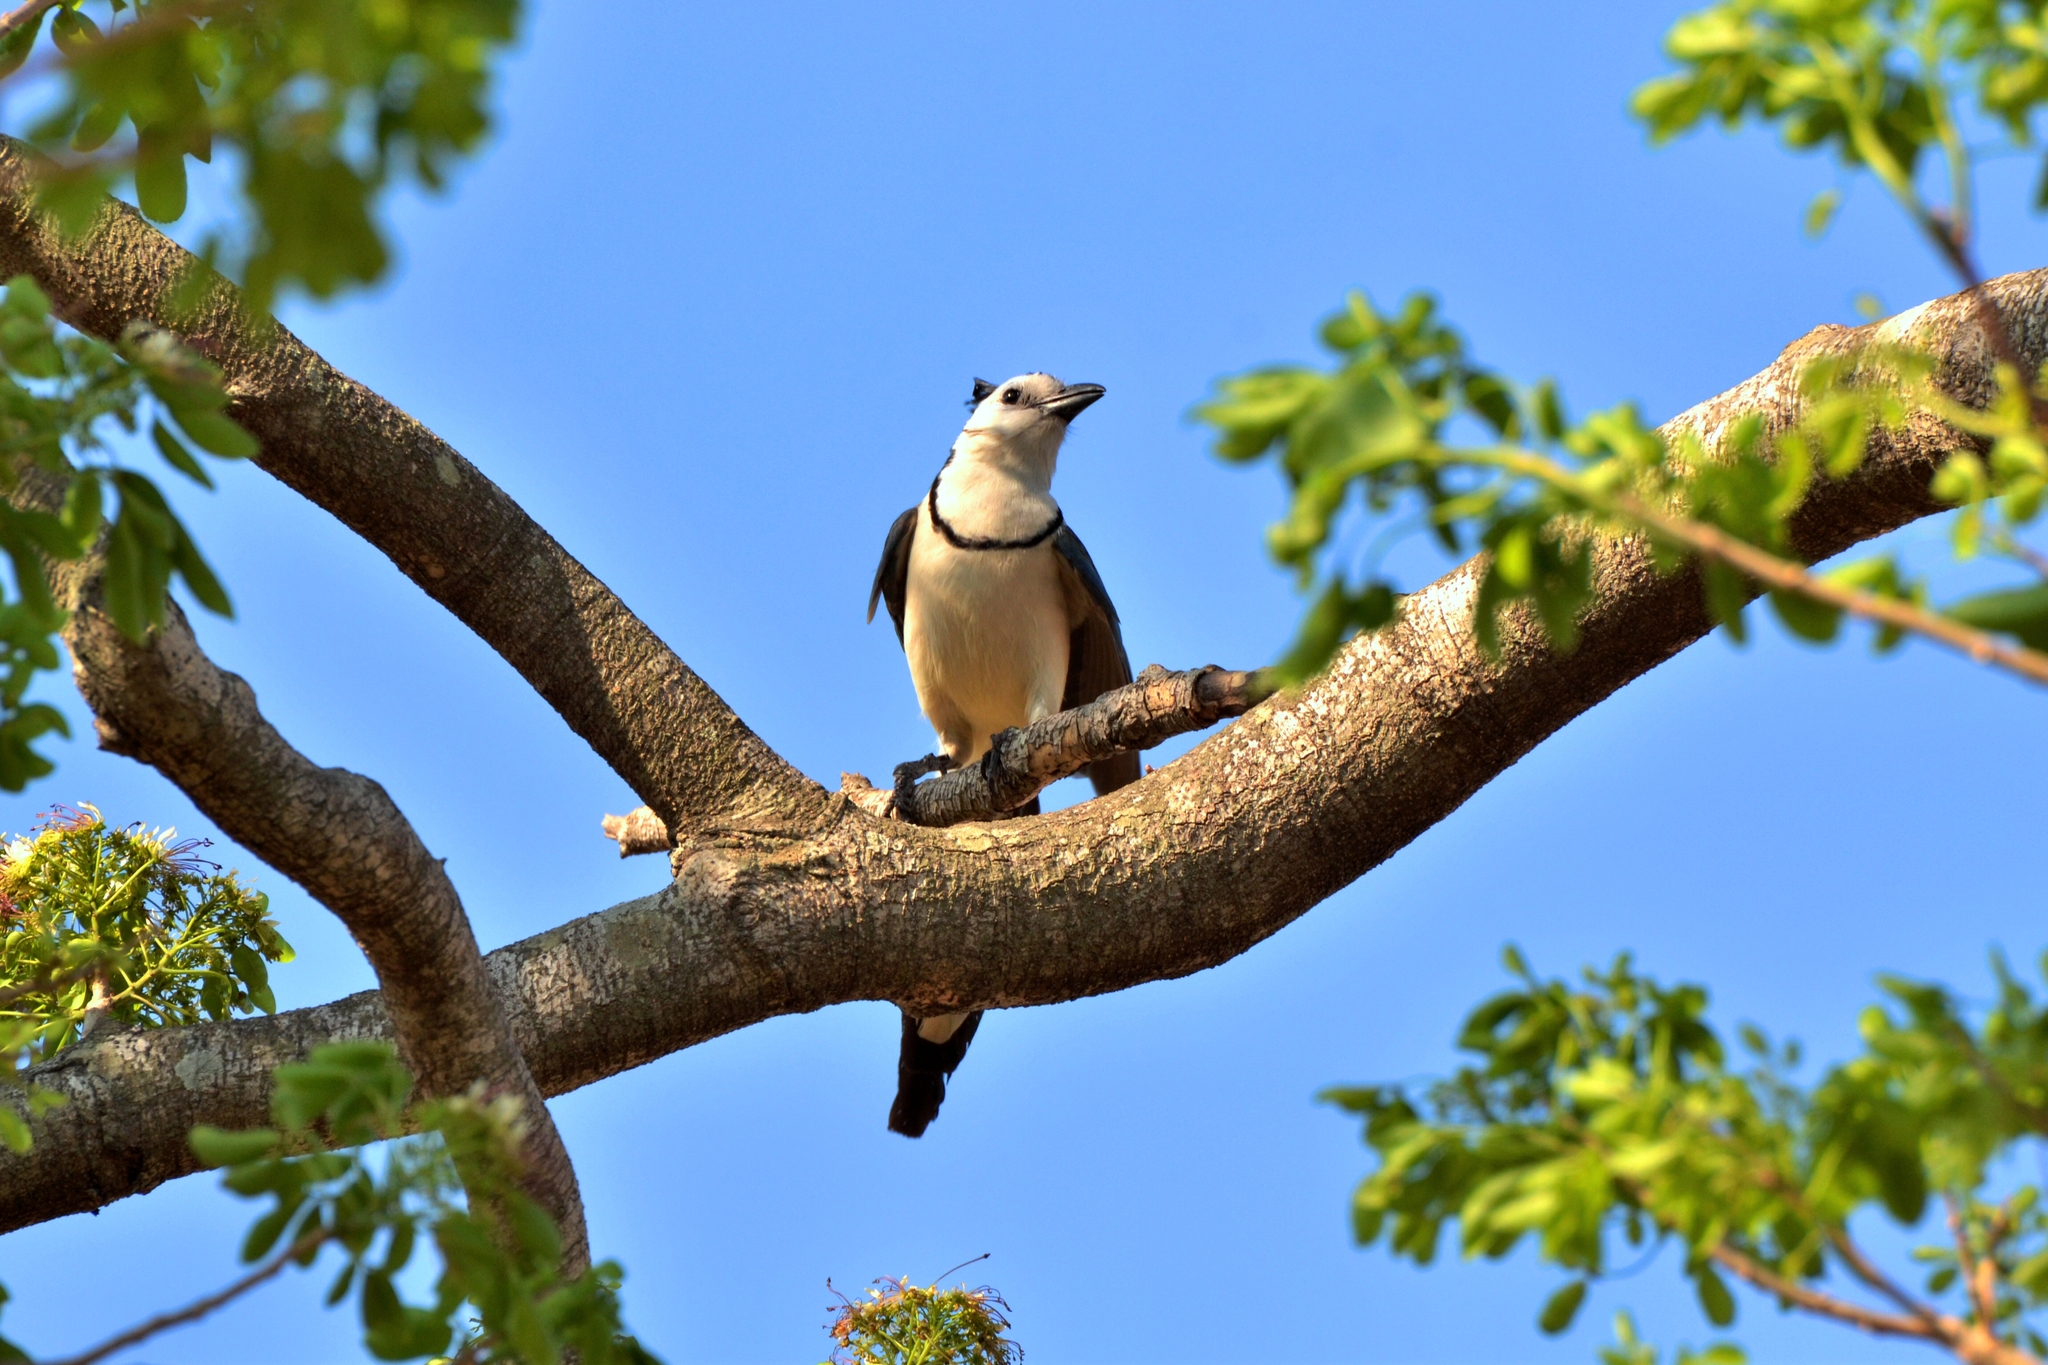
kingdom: Animalia
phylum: Chordata
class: Aves
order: Passeriformes
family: Corvidae
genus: Calocitta
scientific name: Calocitta formosa
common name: White-throated magpie-jay
